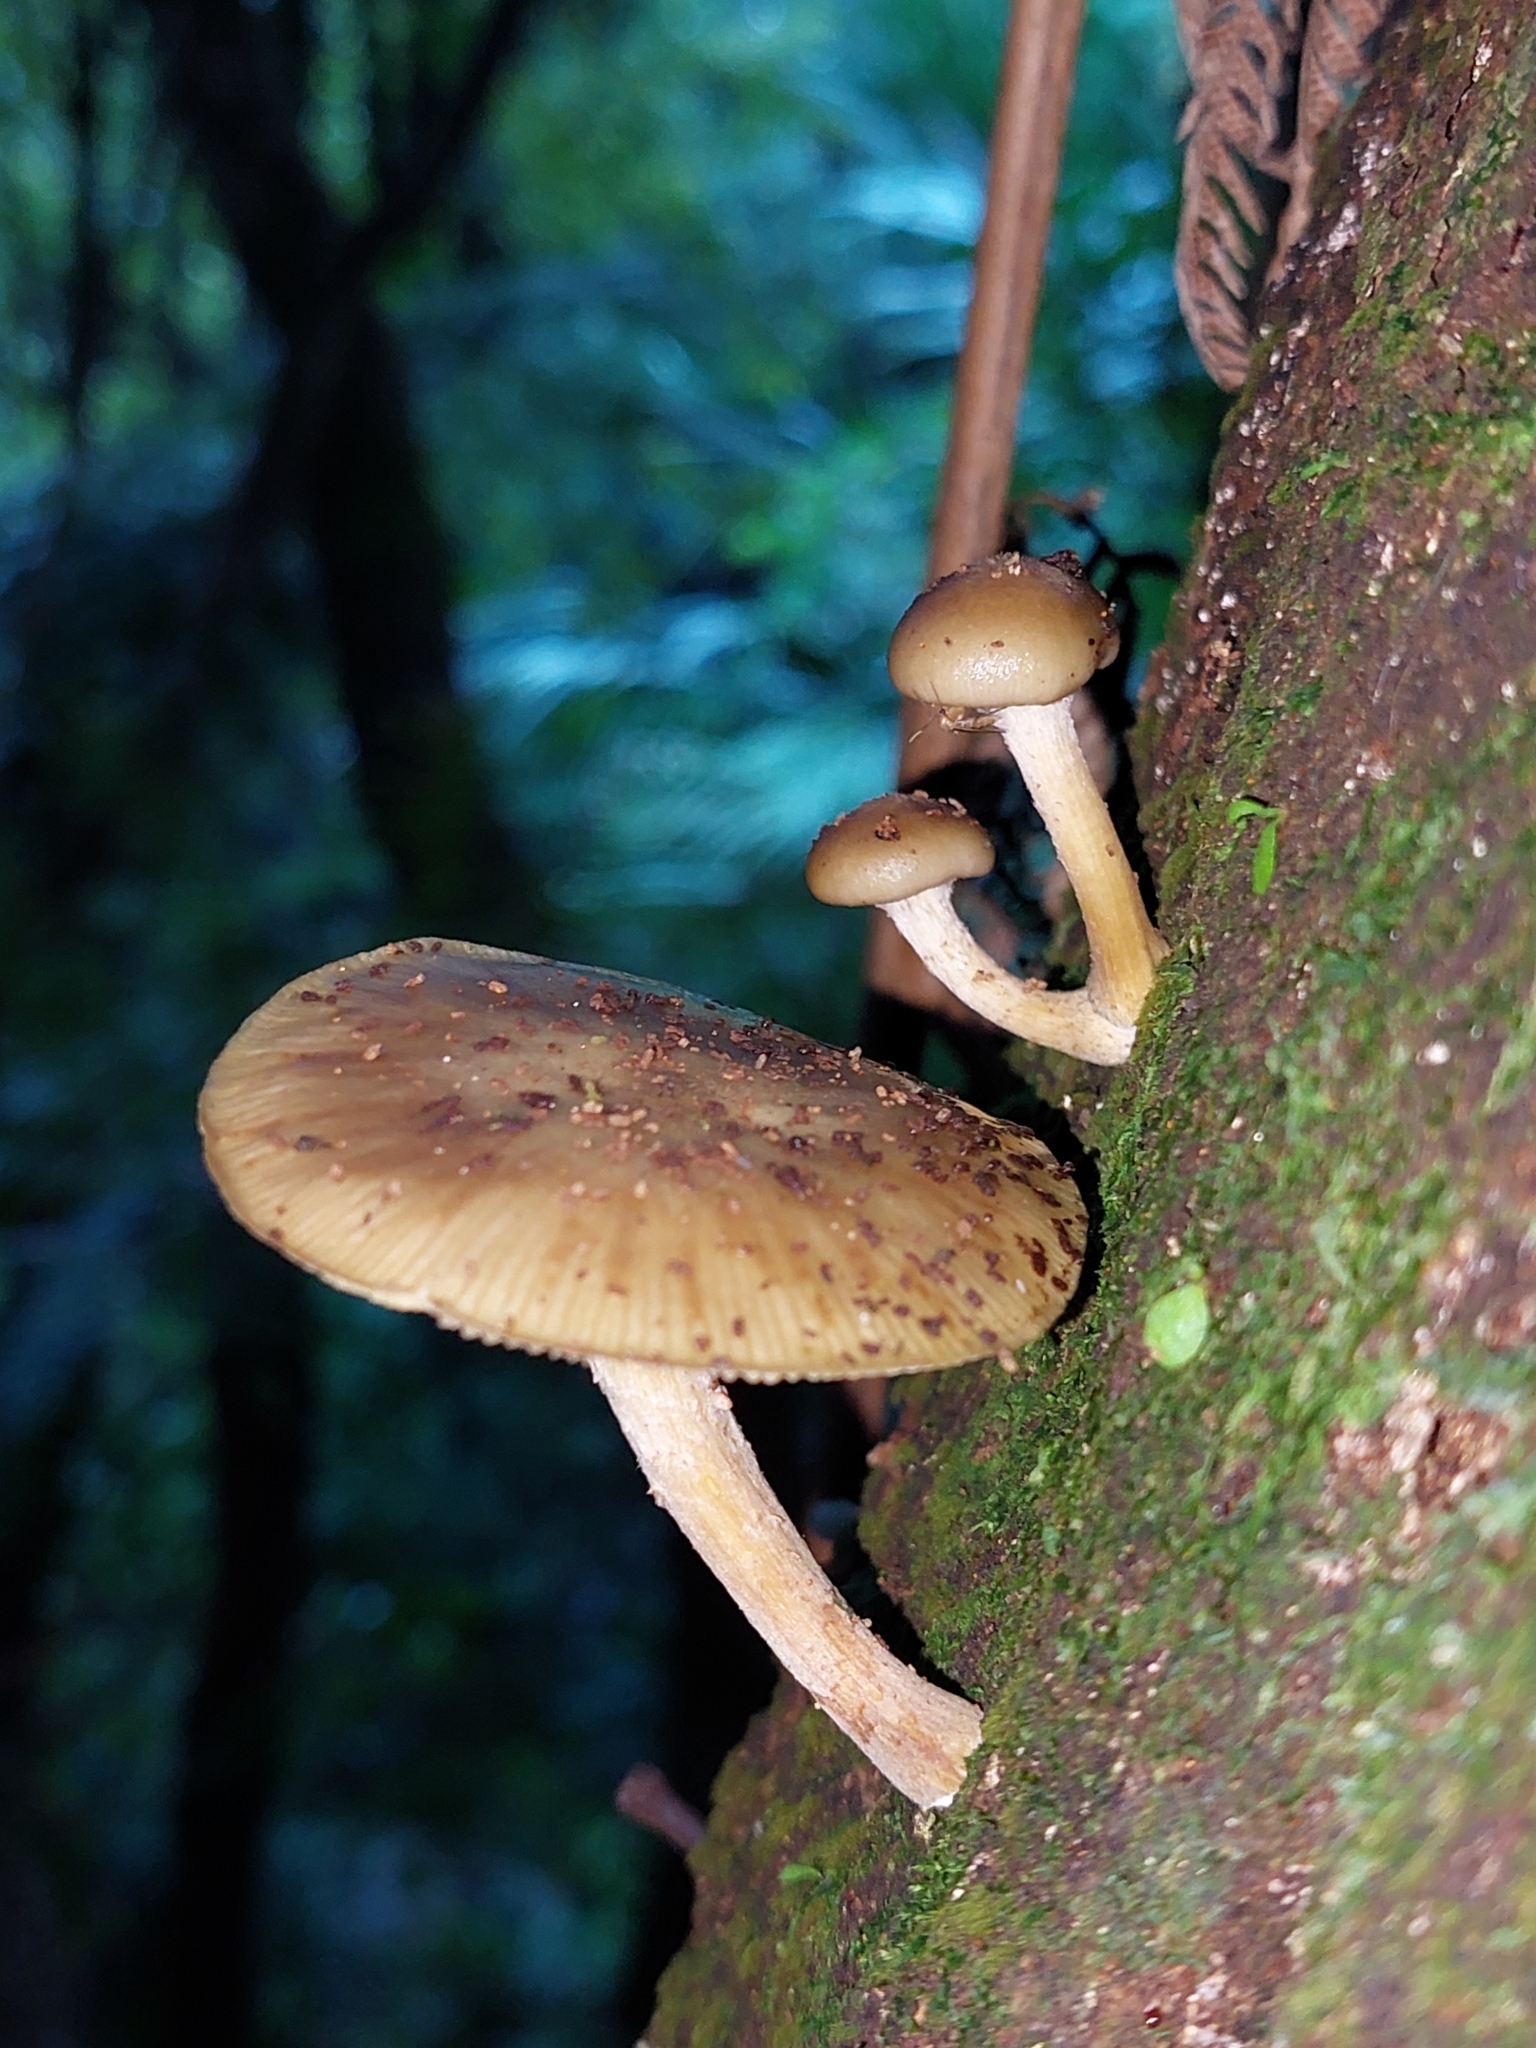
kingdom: Fungi
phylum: Basidiomycota
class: Agaricomycetes
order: Agaricales
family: Physalacriaceae
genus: Armillaria
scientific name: Armillaria novae-zelandiae
